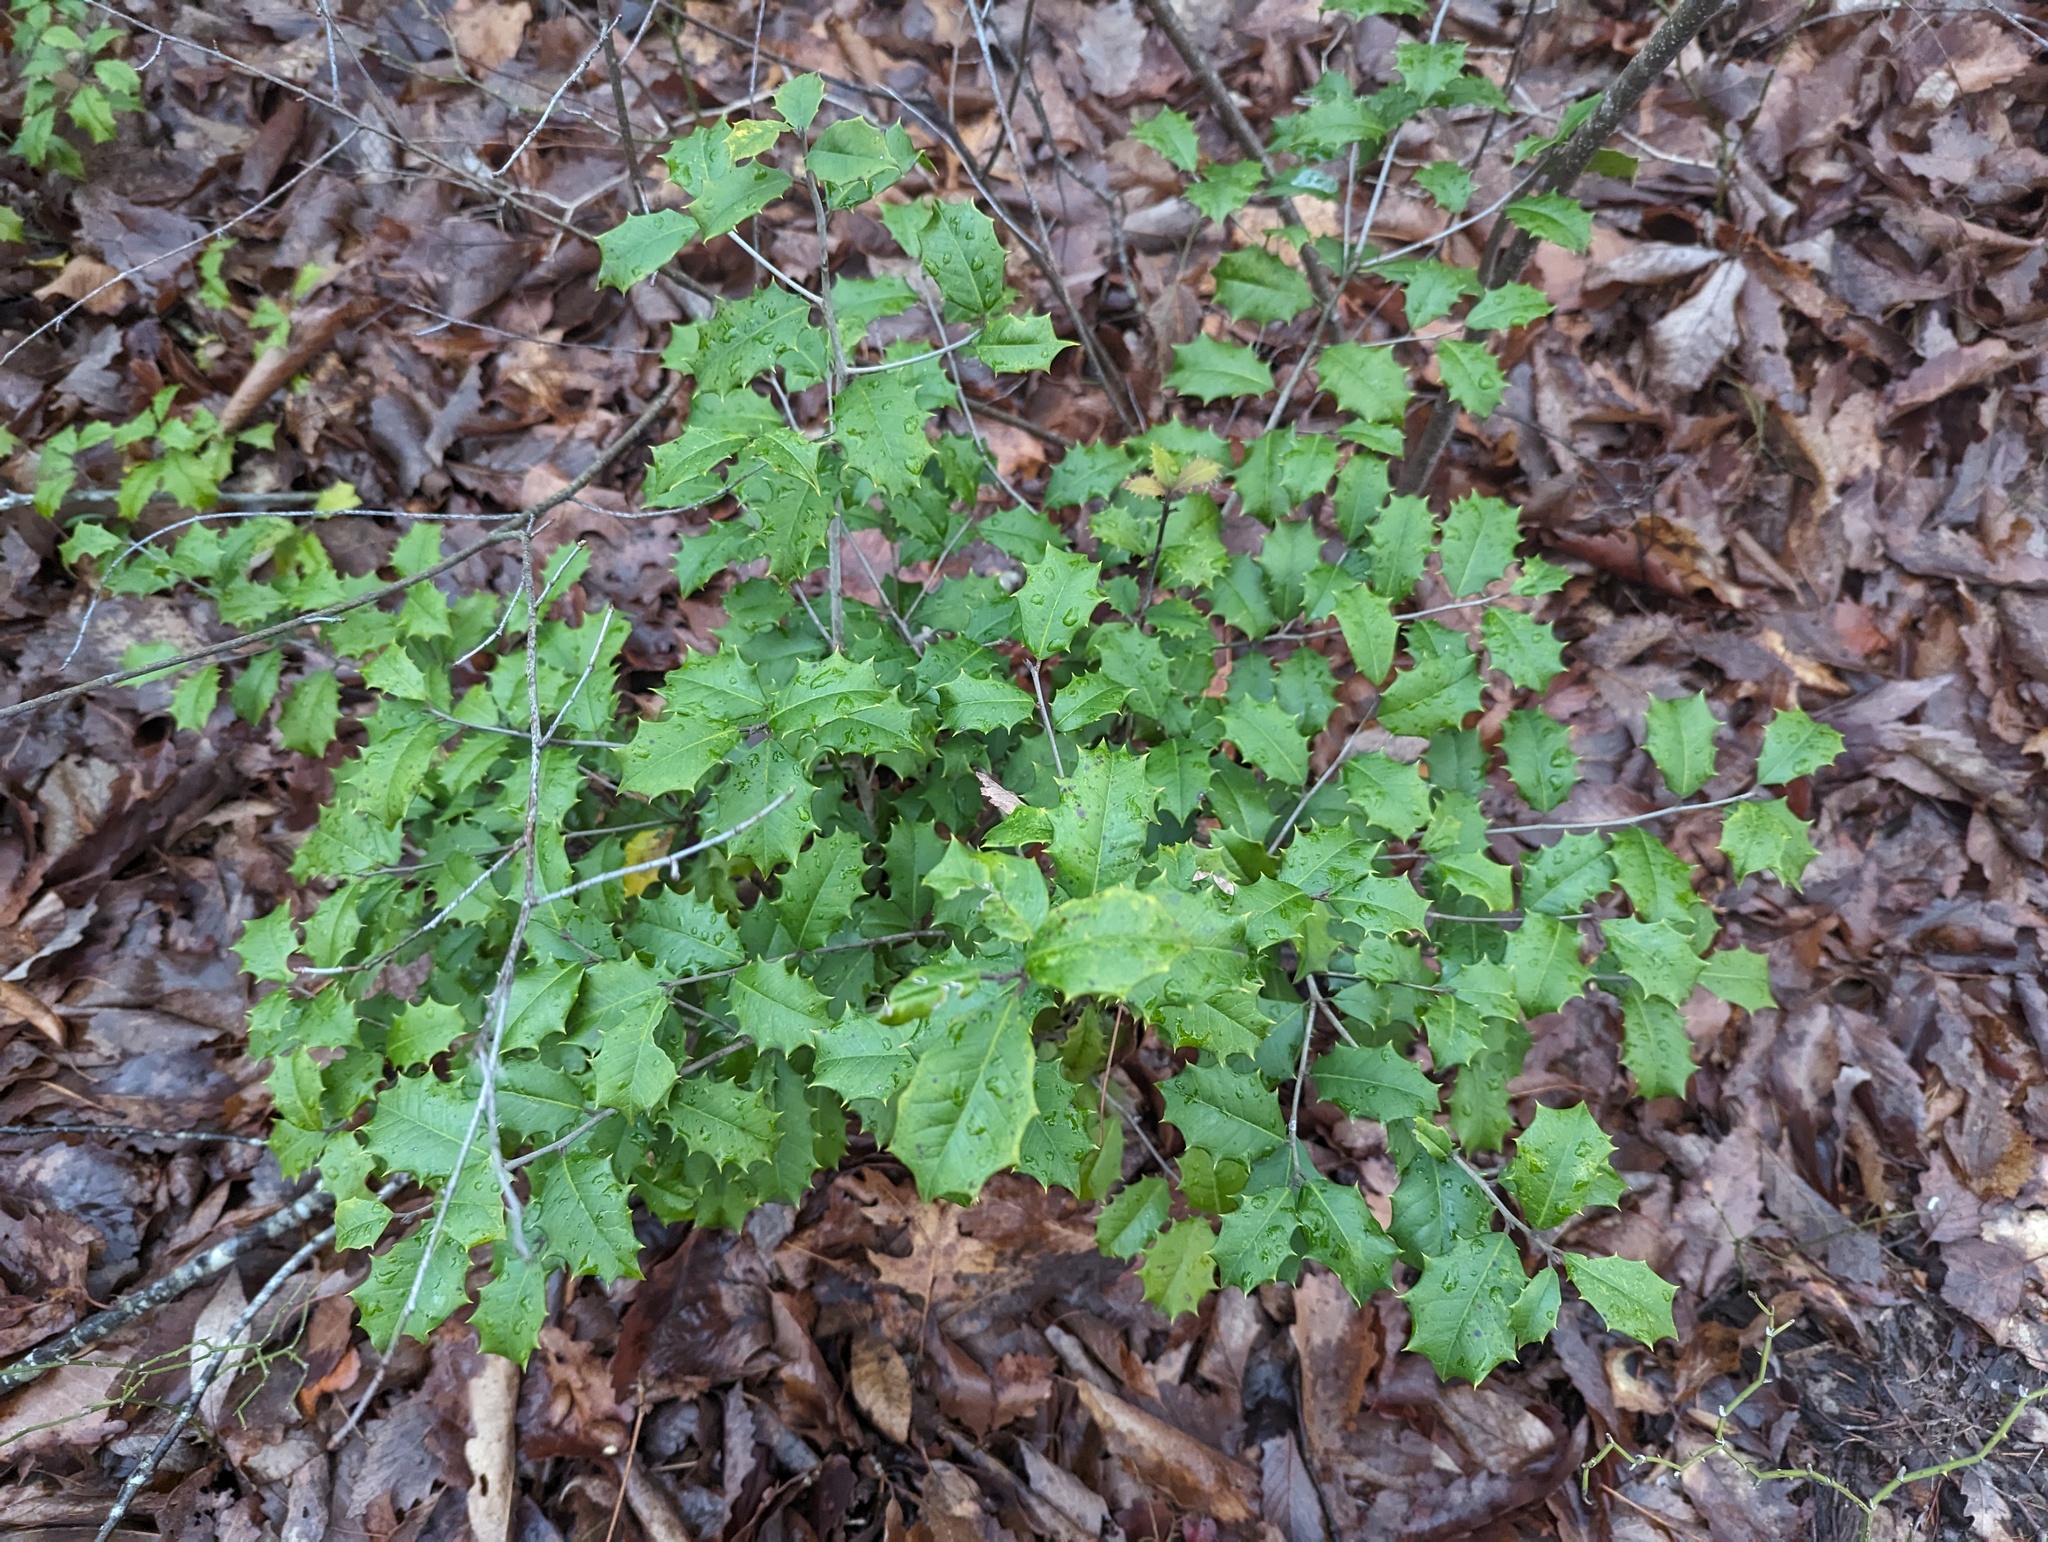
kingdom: Plantae
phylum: Tracheophyta
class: Magnoliopsida
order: Aquifoliales
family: Aquifoliaceae
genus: Ilex
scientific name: Ilex opaca
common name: American holly
